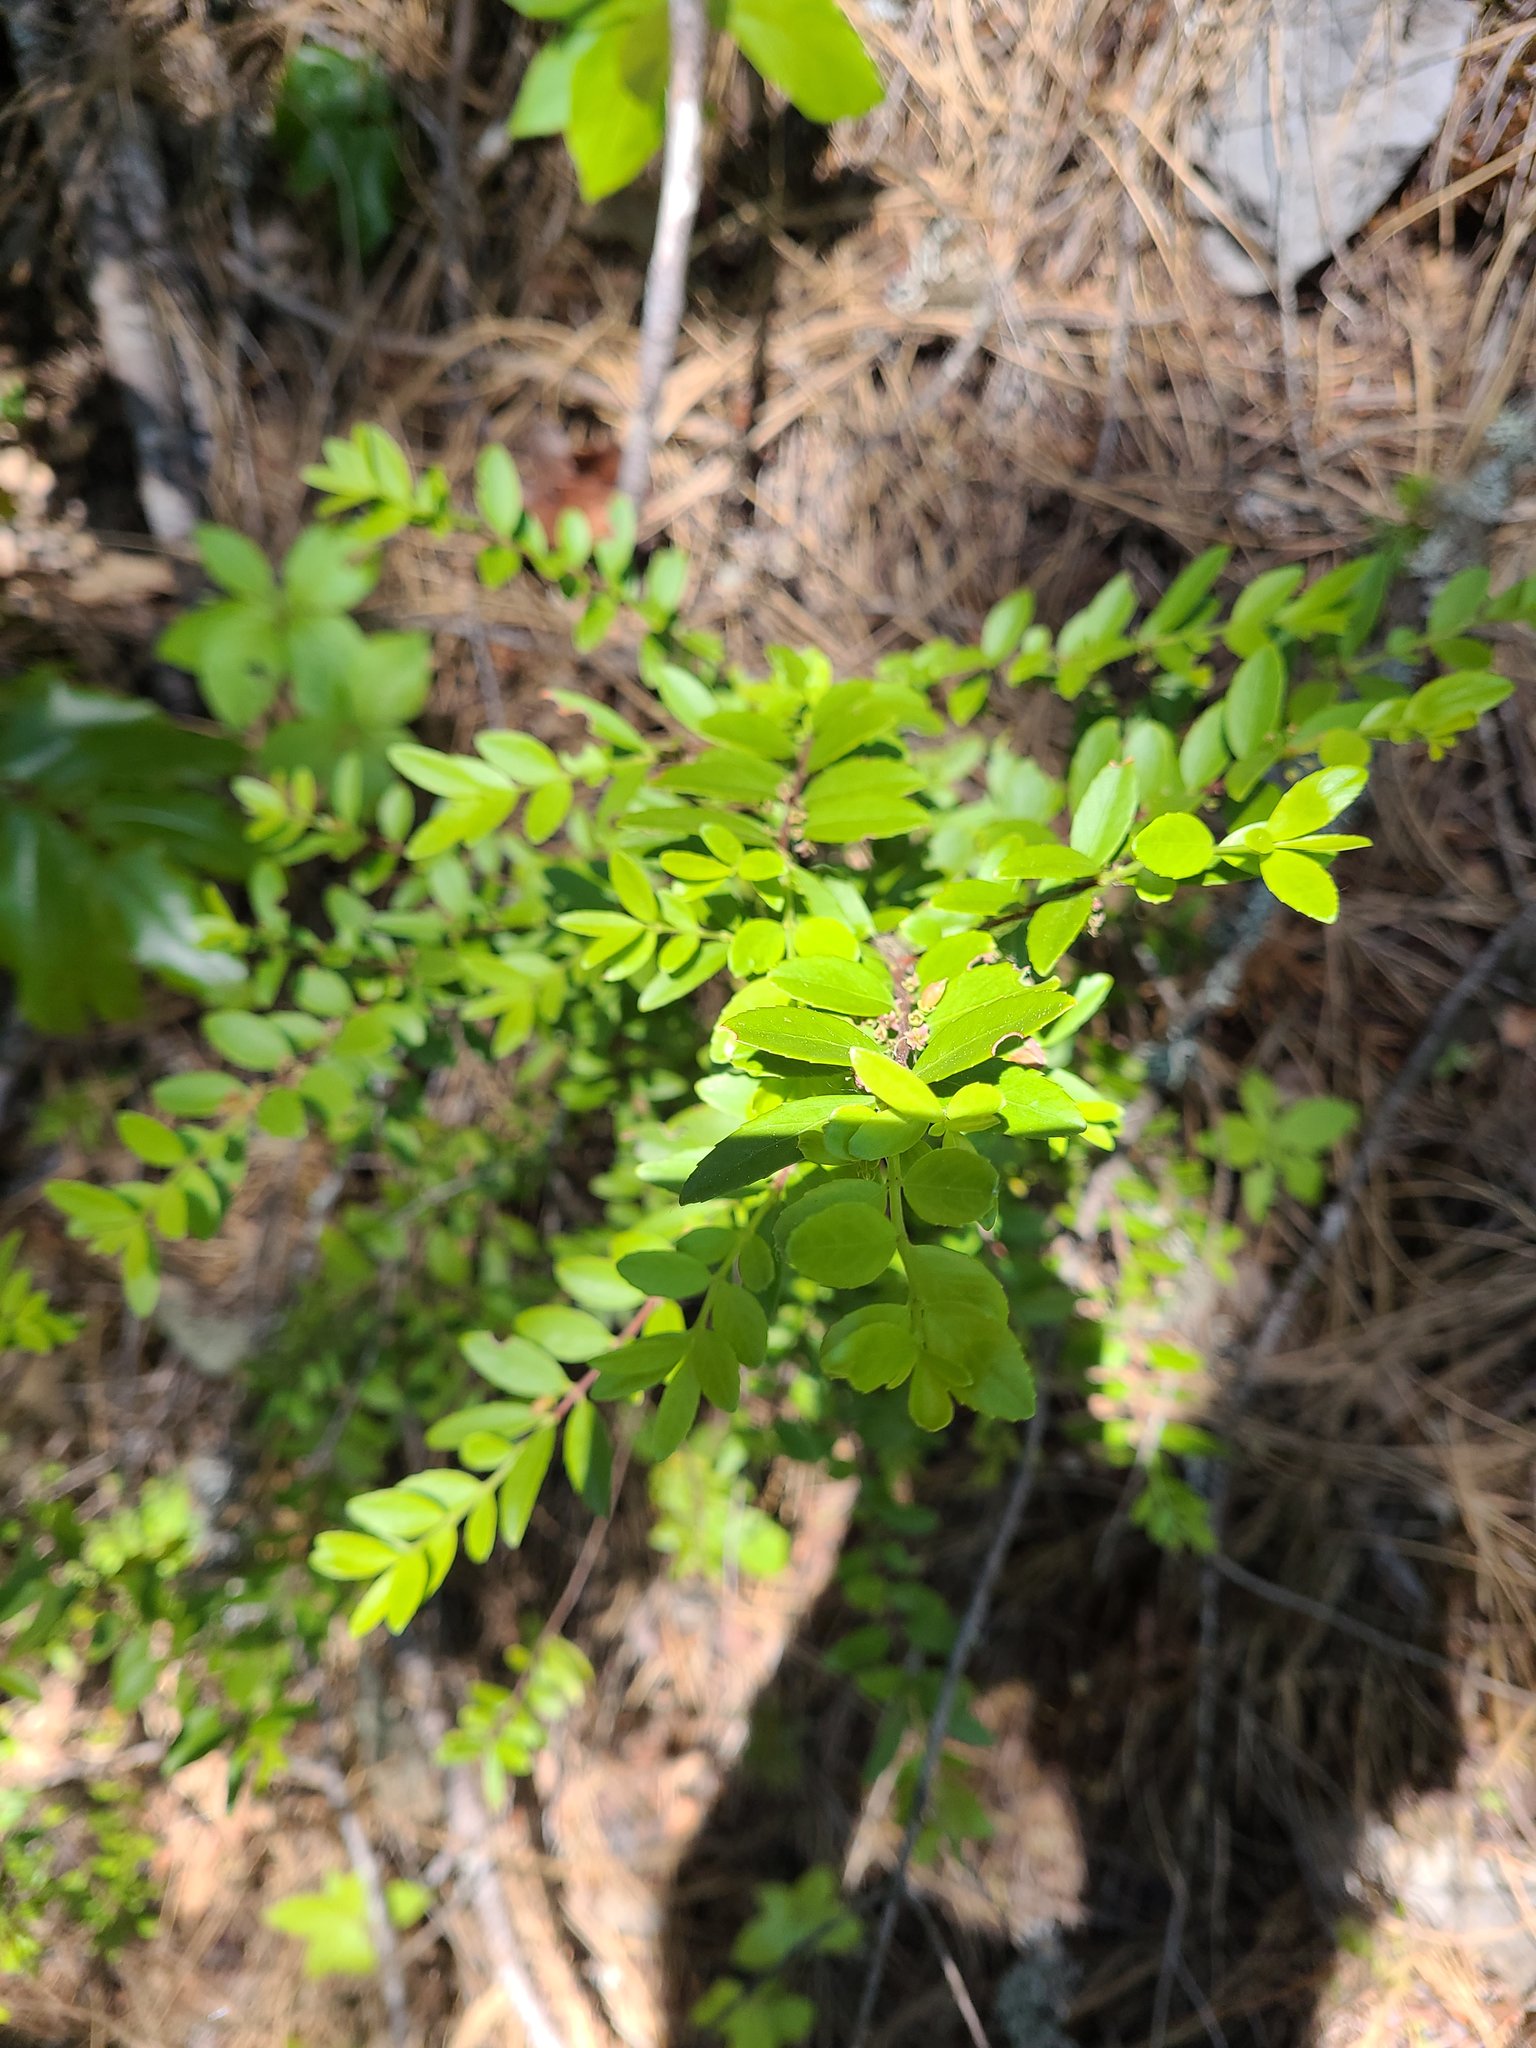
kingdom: Plantae
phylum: Tracheophyta
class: Magnoliopsida
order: Celastrales
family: Celastraceae
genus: Paxistima
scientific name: Paxistima myrsinites
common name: Mountain-lover
